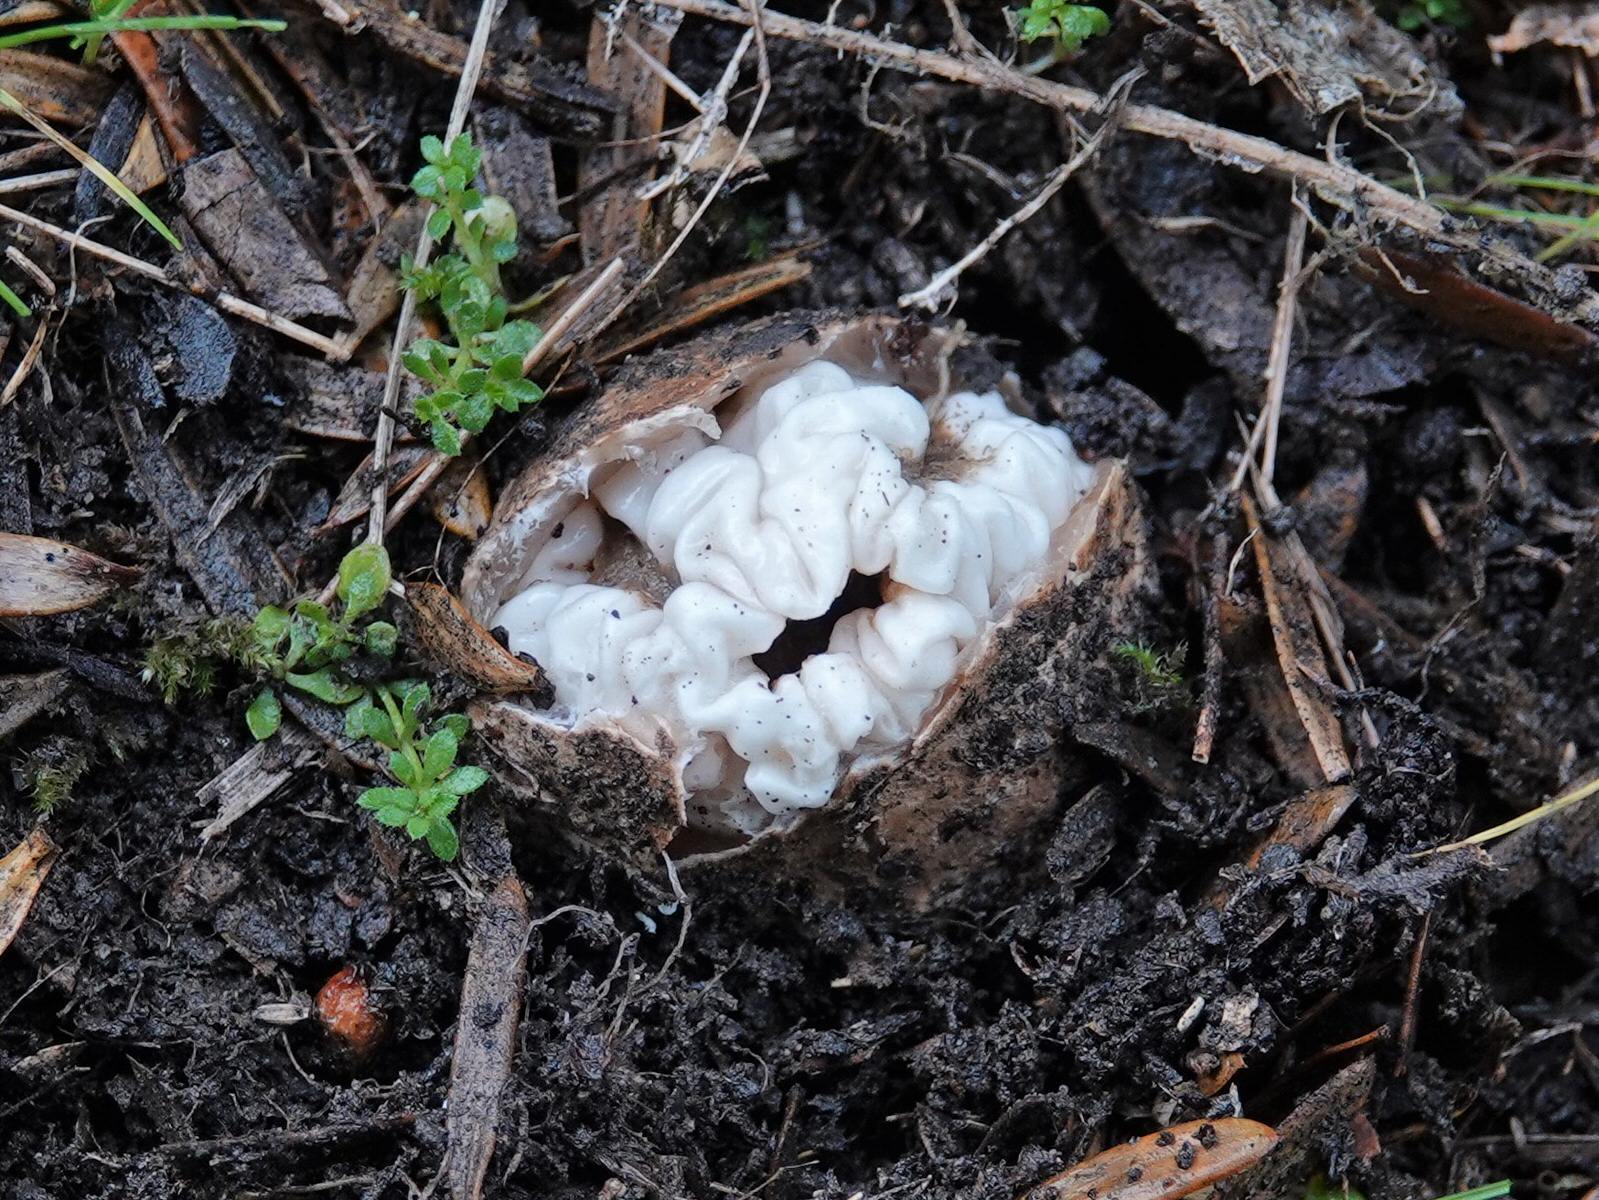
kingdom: Fungi
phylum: Basidiomycota
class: Agaricomycetes
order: Phallales
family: Phallaceae
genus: Ileodictyon
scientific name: Ileodictyon cibarium
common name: Basket fungus
